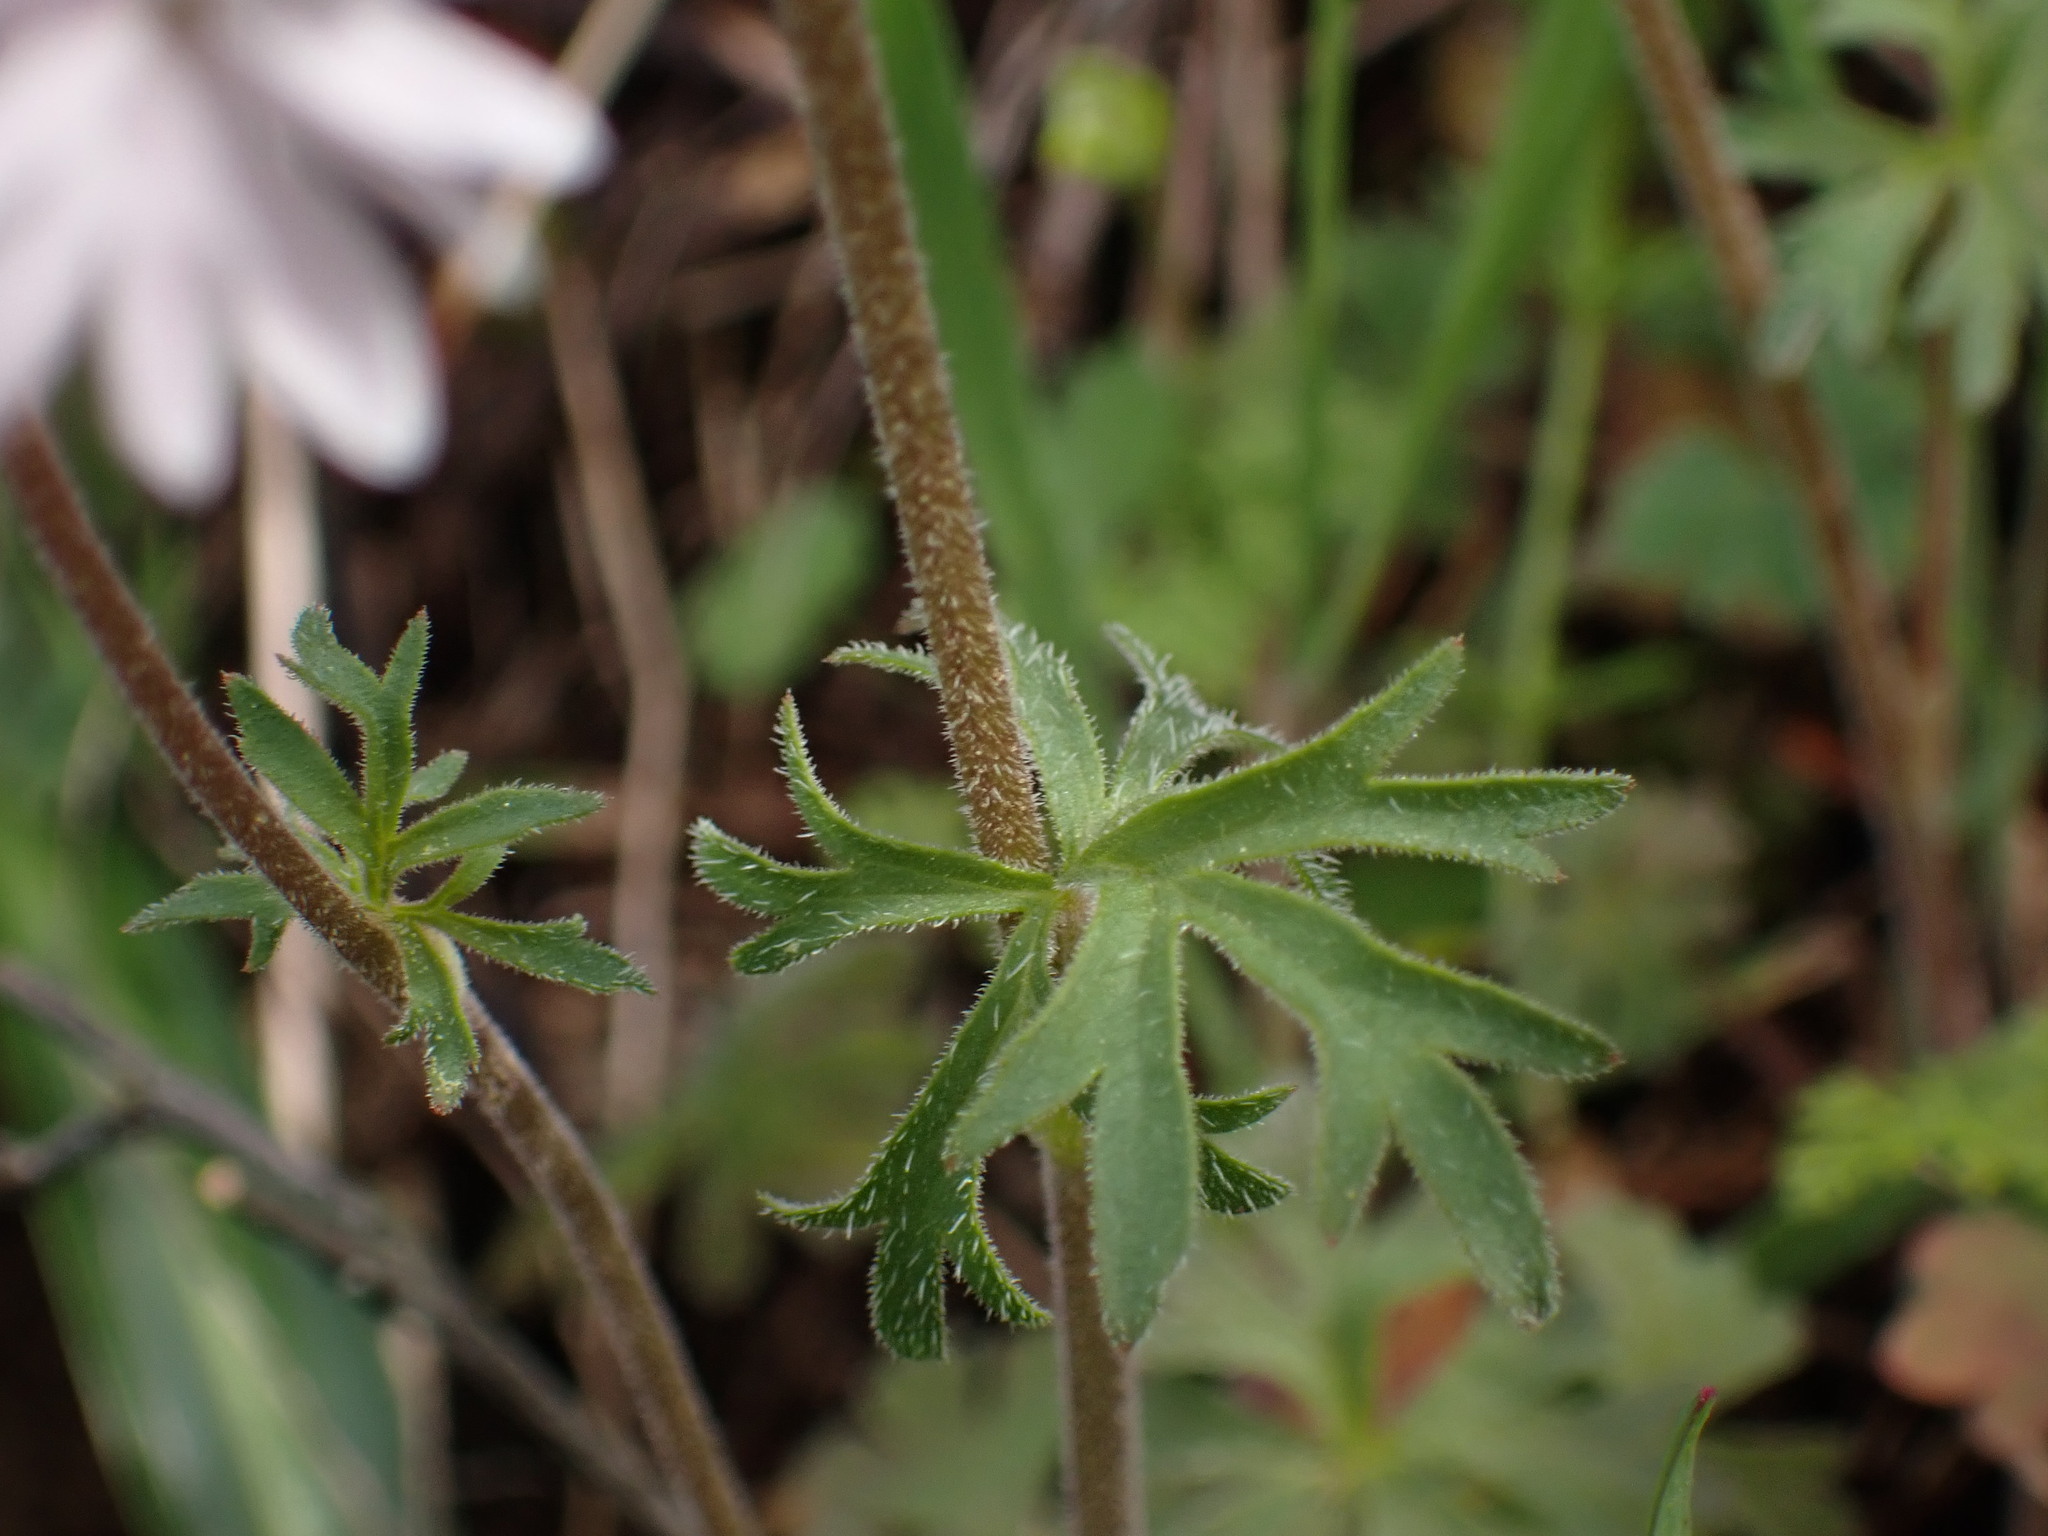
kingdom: Plantae
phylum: Tracheophyta
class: Magnoliopsida
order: Saxifragales
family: Saxifragaceae
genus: Lithophragma
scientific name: Lithophragma parviflorum
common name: Small-flowered fringe-cup
